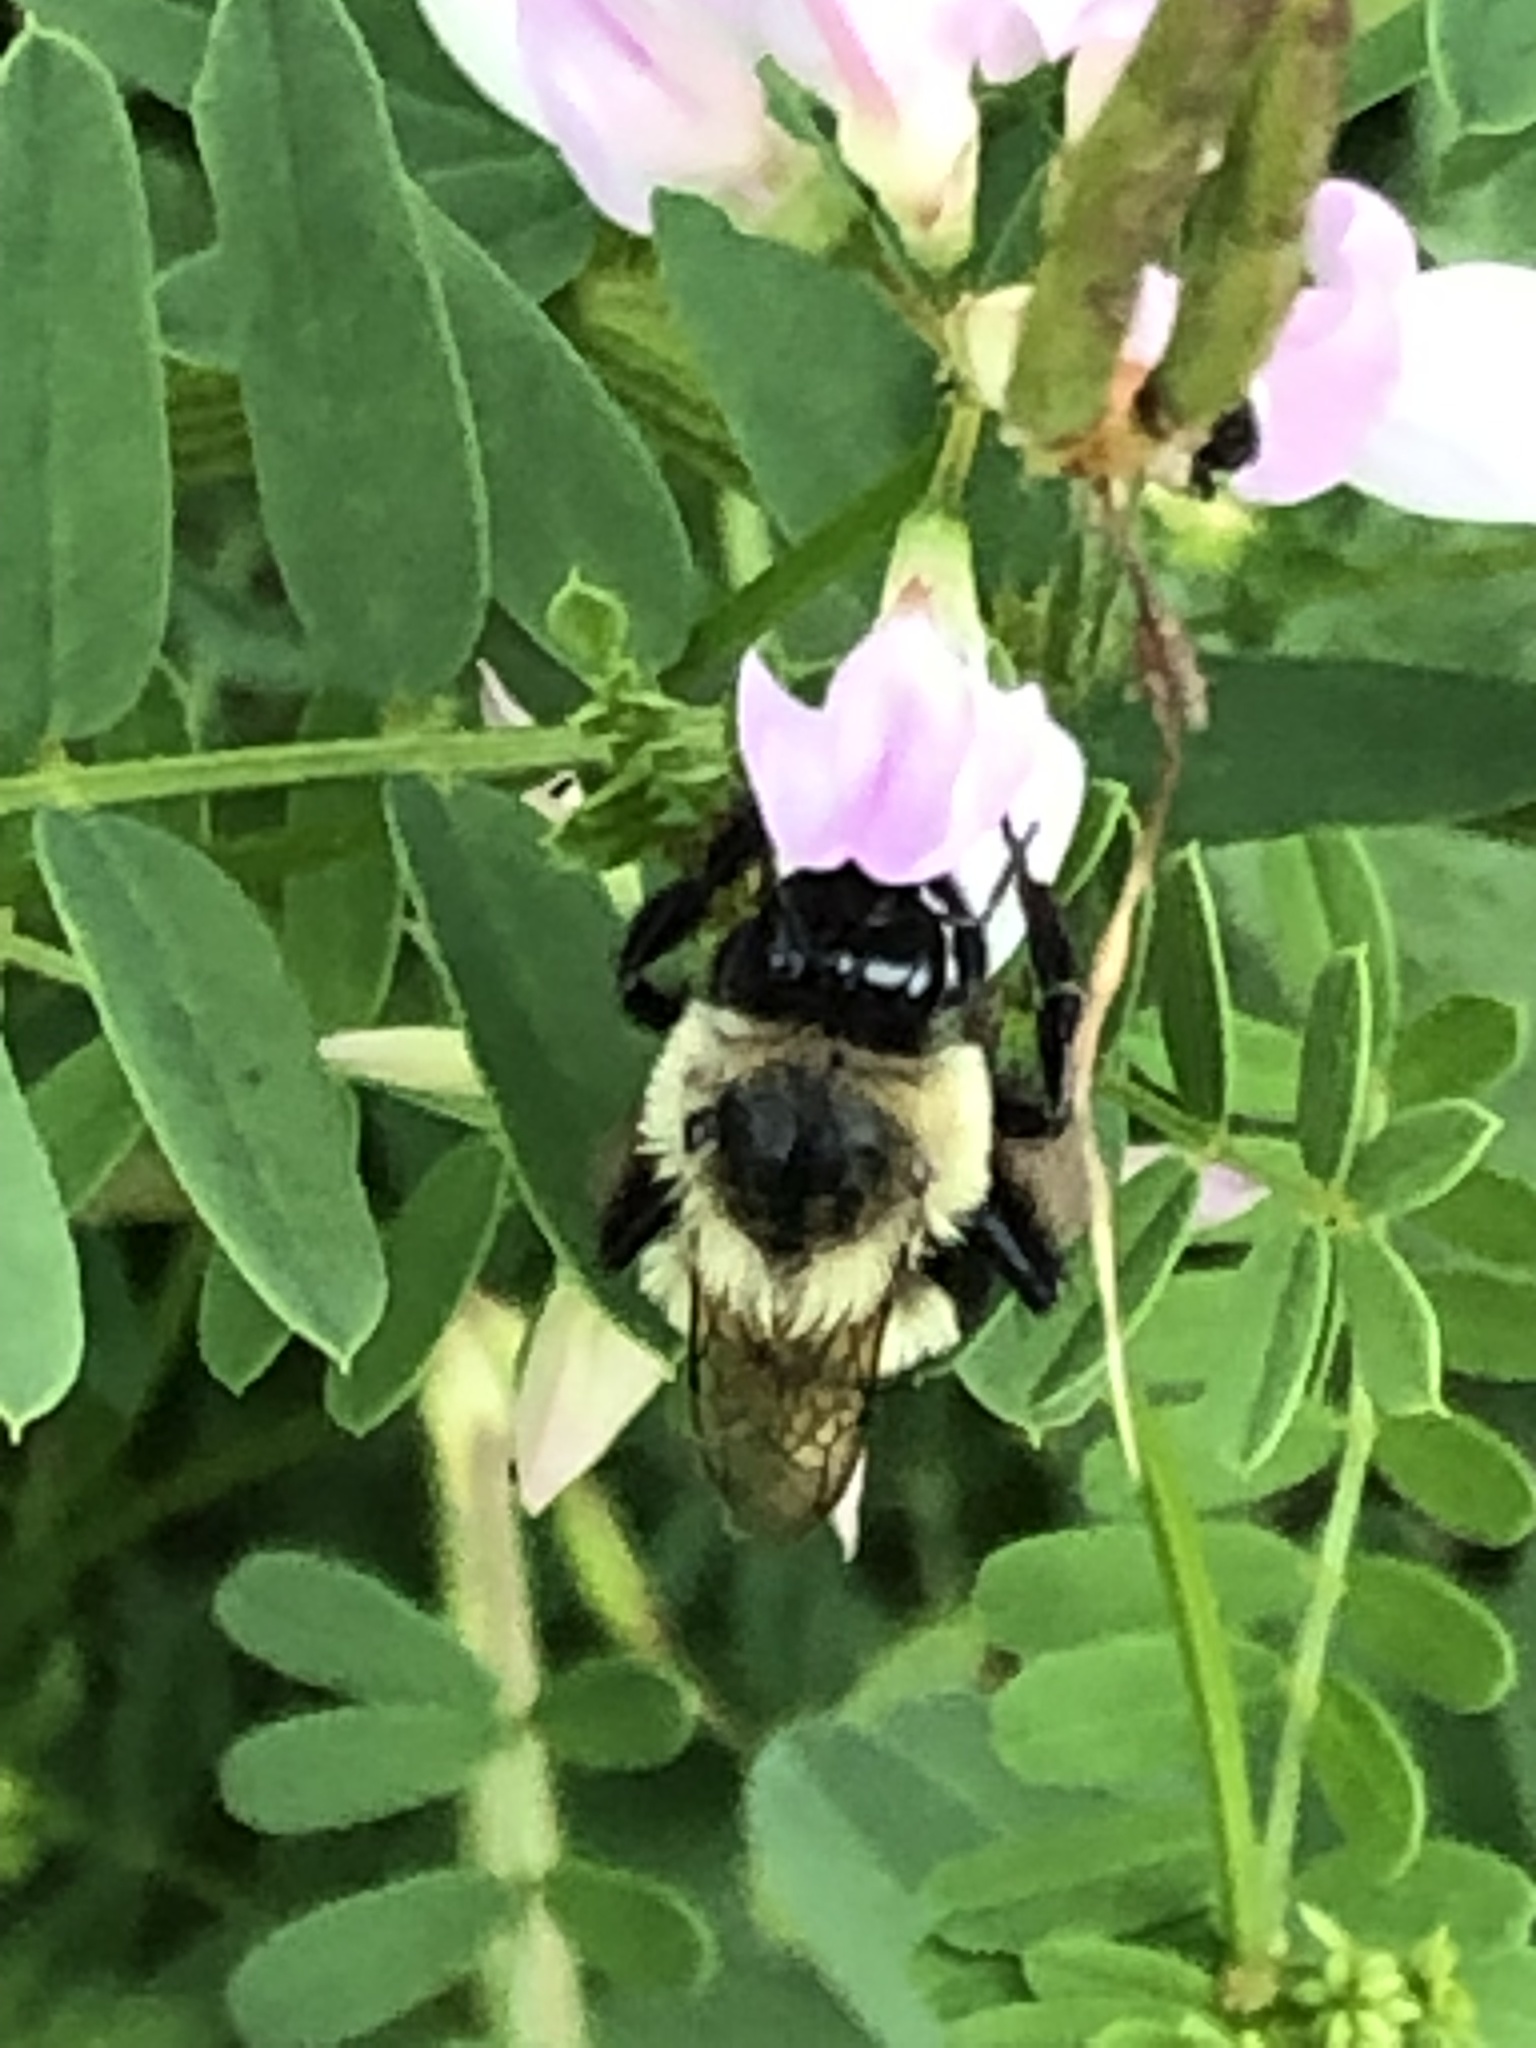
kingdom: Animalia
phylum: Arthropoda
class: Insecta
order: Hymenoptera
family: Apidae
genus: Bombus
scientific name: Bombus impatiens
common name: Common eastern bumble bee
